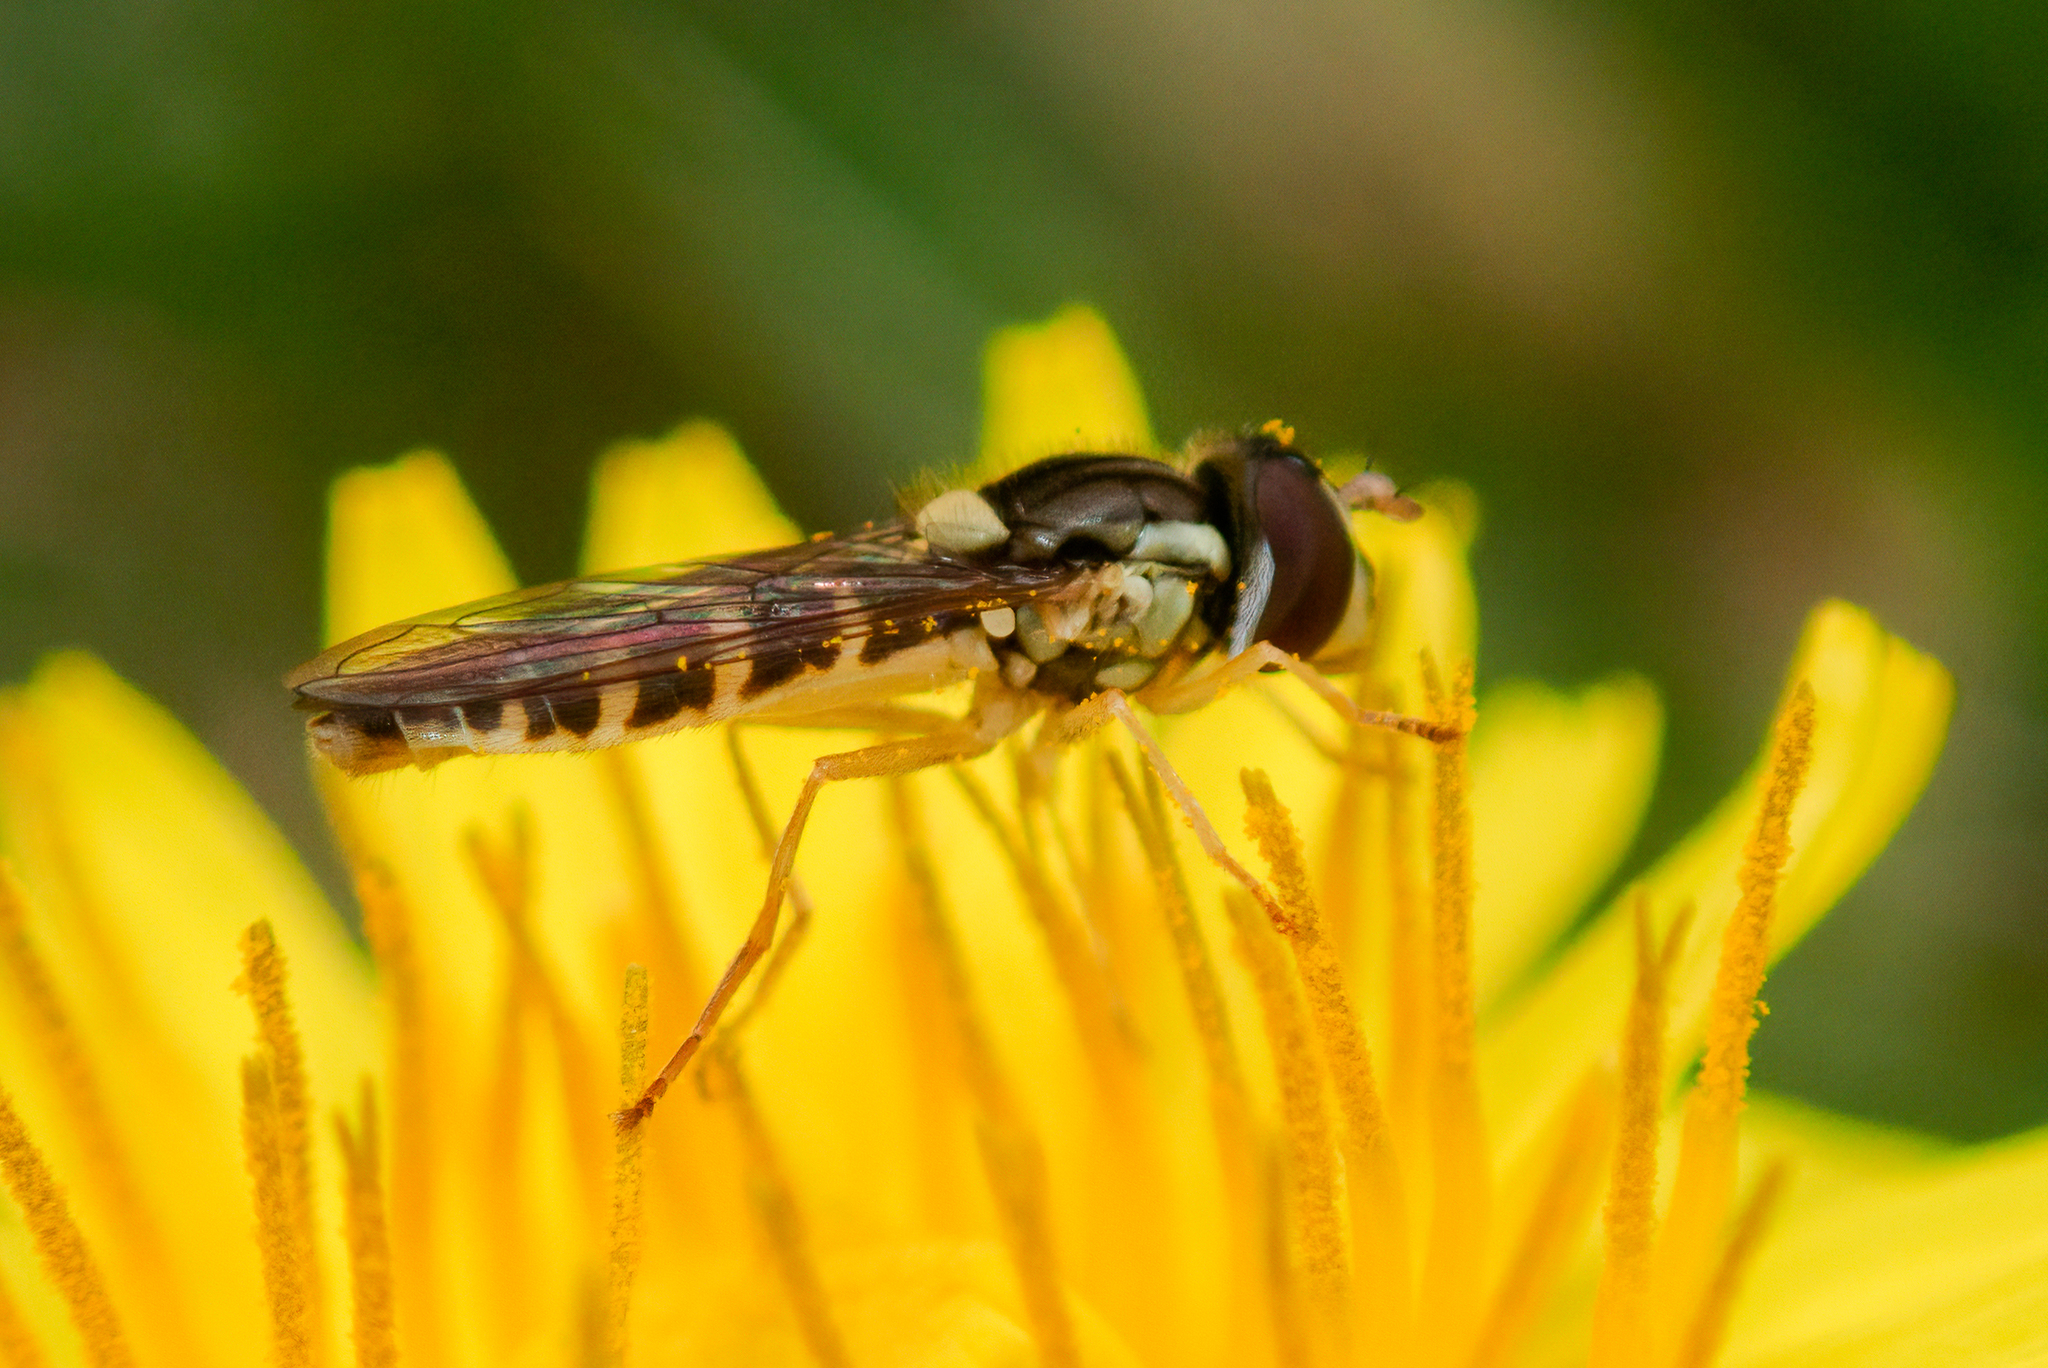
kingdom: Animalia
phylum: Arthropoda
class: Insecta
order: Diptera
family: Syrphidae
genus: Sphaerophoria
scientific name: Sphaerophoria
